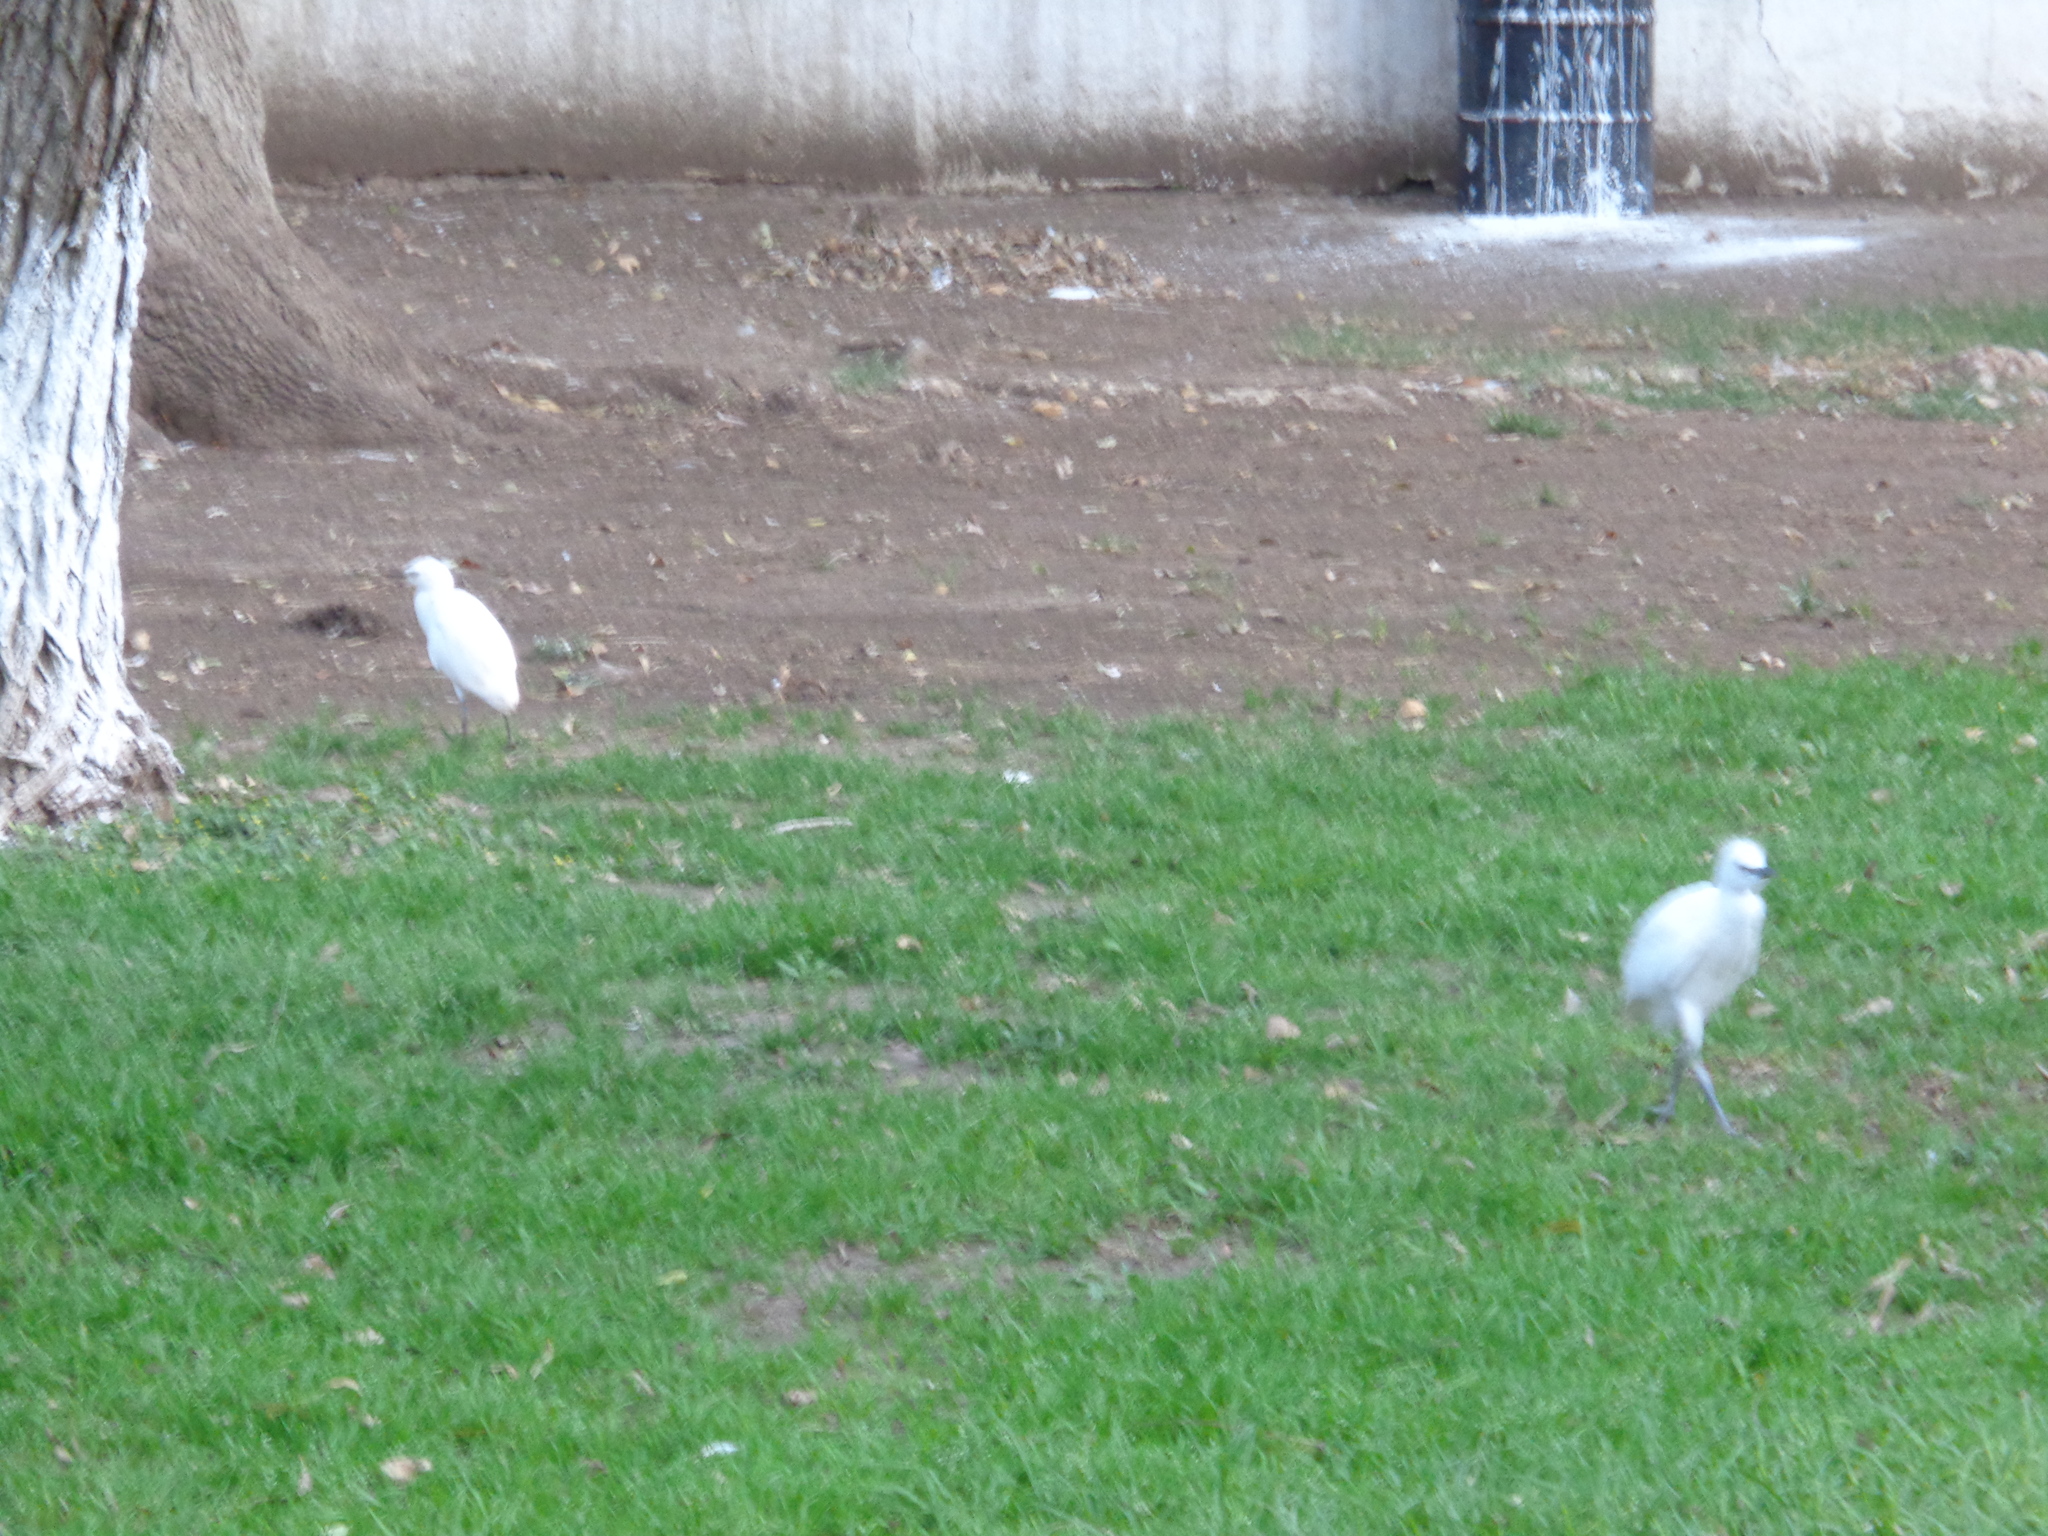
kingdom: Animalia
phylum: Chordata
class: Aves
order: Pelecaniformes
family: Ardeidae
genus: Bubulcus
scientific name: Bubulcus ibis
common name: Cattle egret
